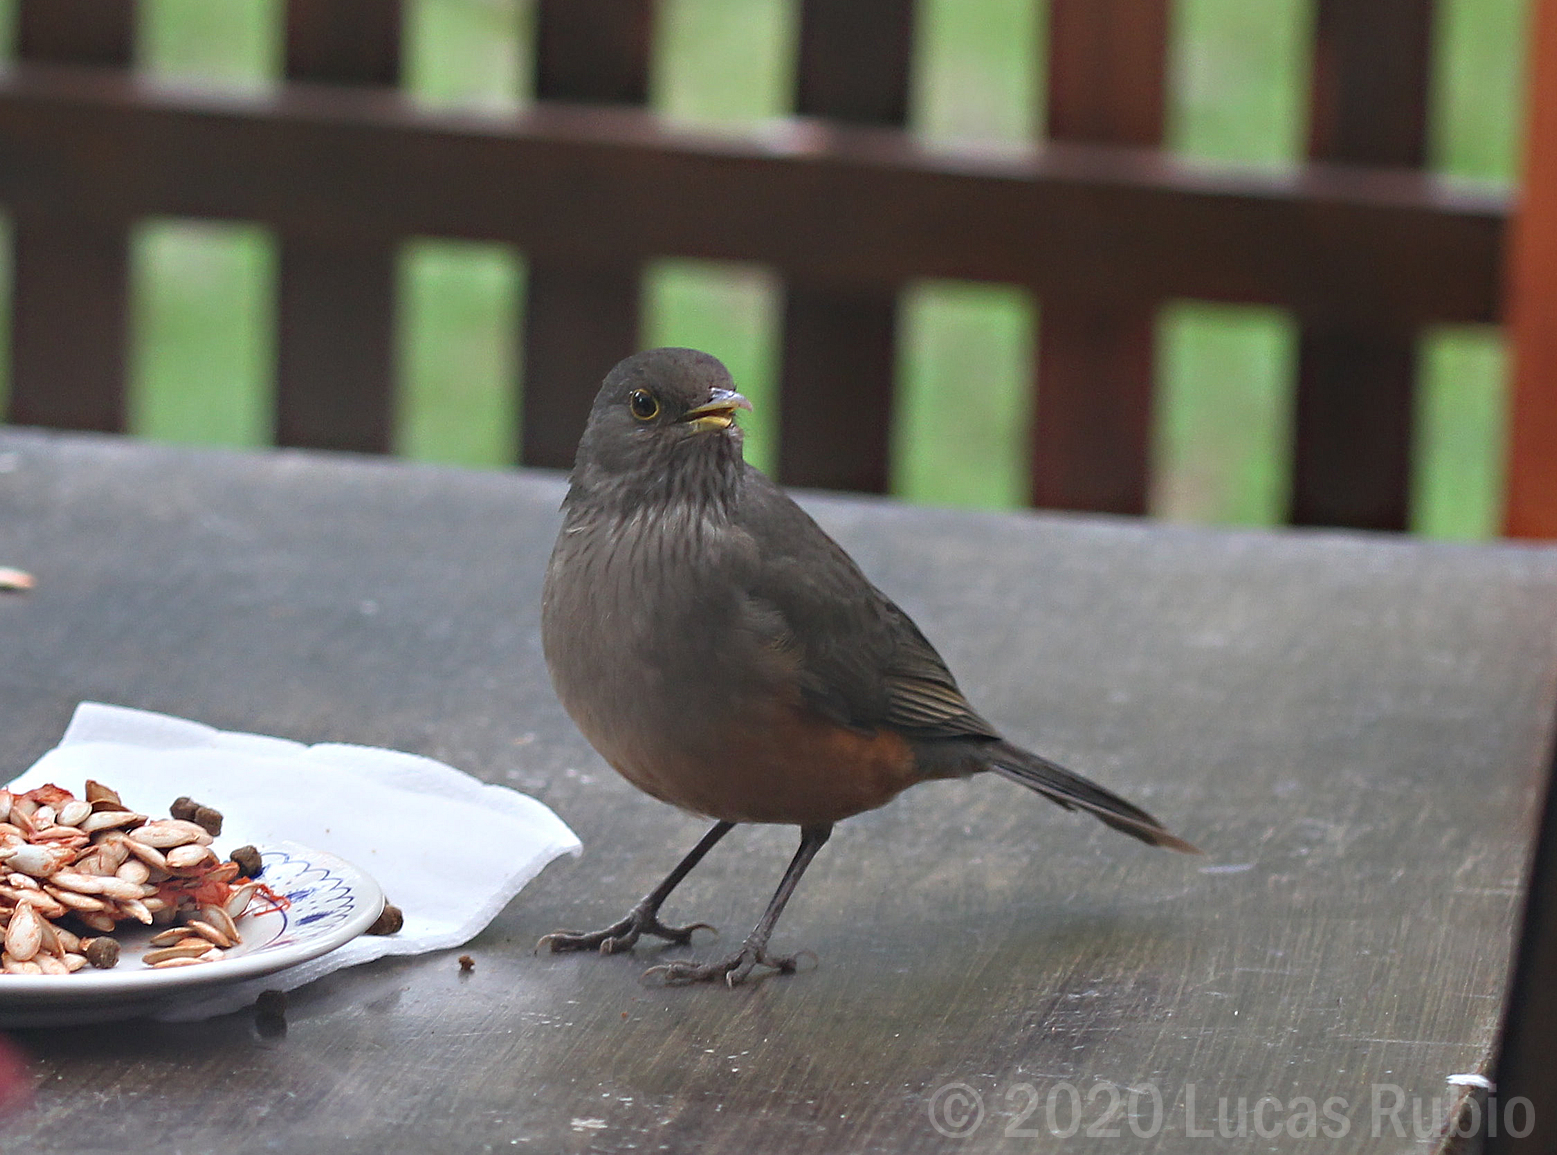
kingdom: Animalia
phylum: Chordata
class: Aves
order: Passeriformes
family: Turdidae
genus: Turdus
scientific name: Turdus rufiventris
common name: Rufous-bellied thrush
